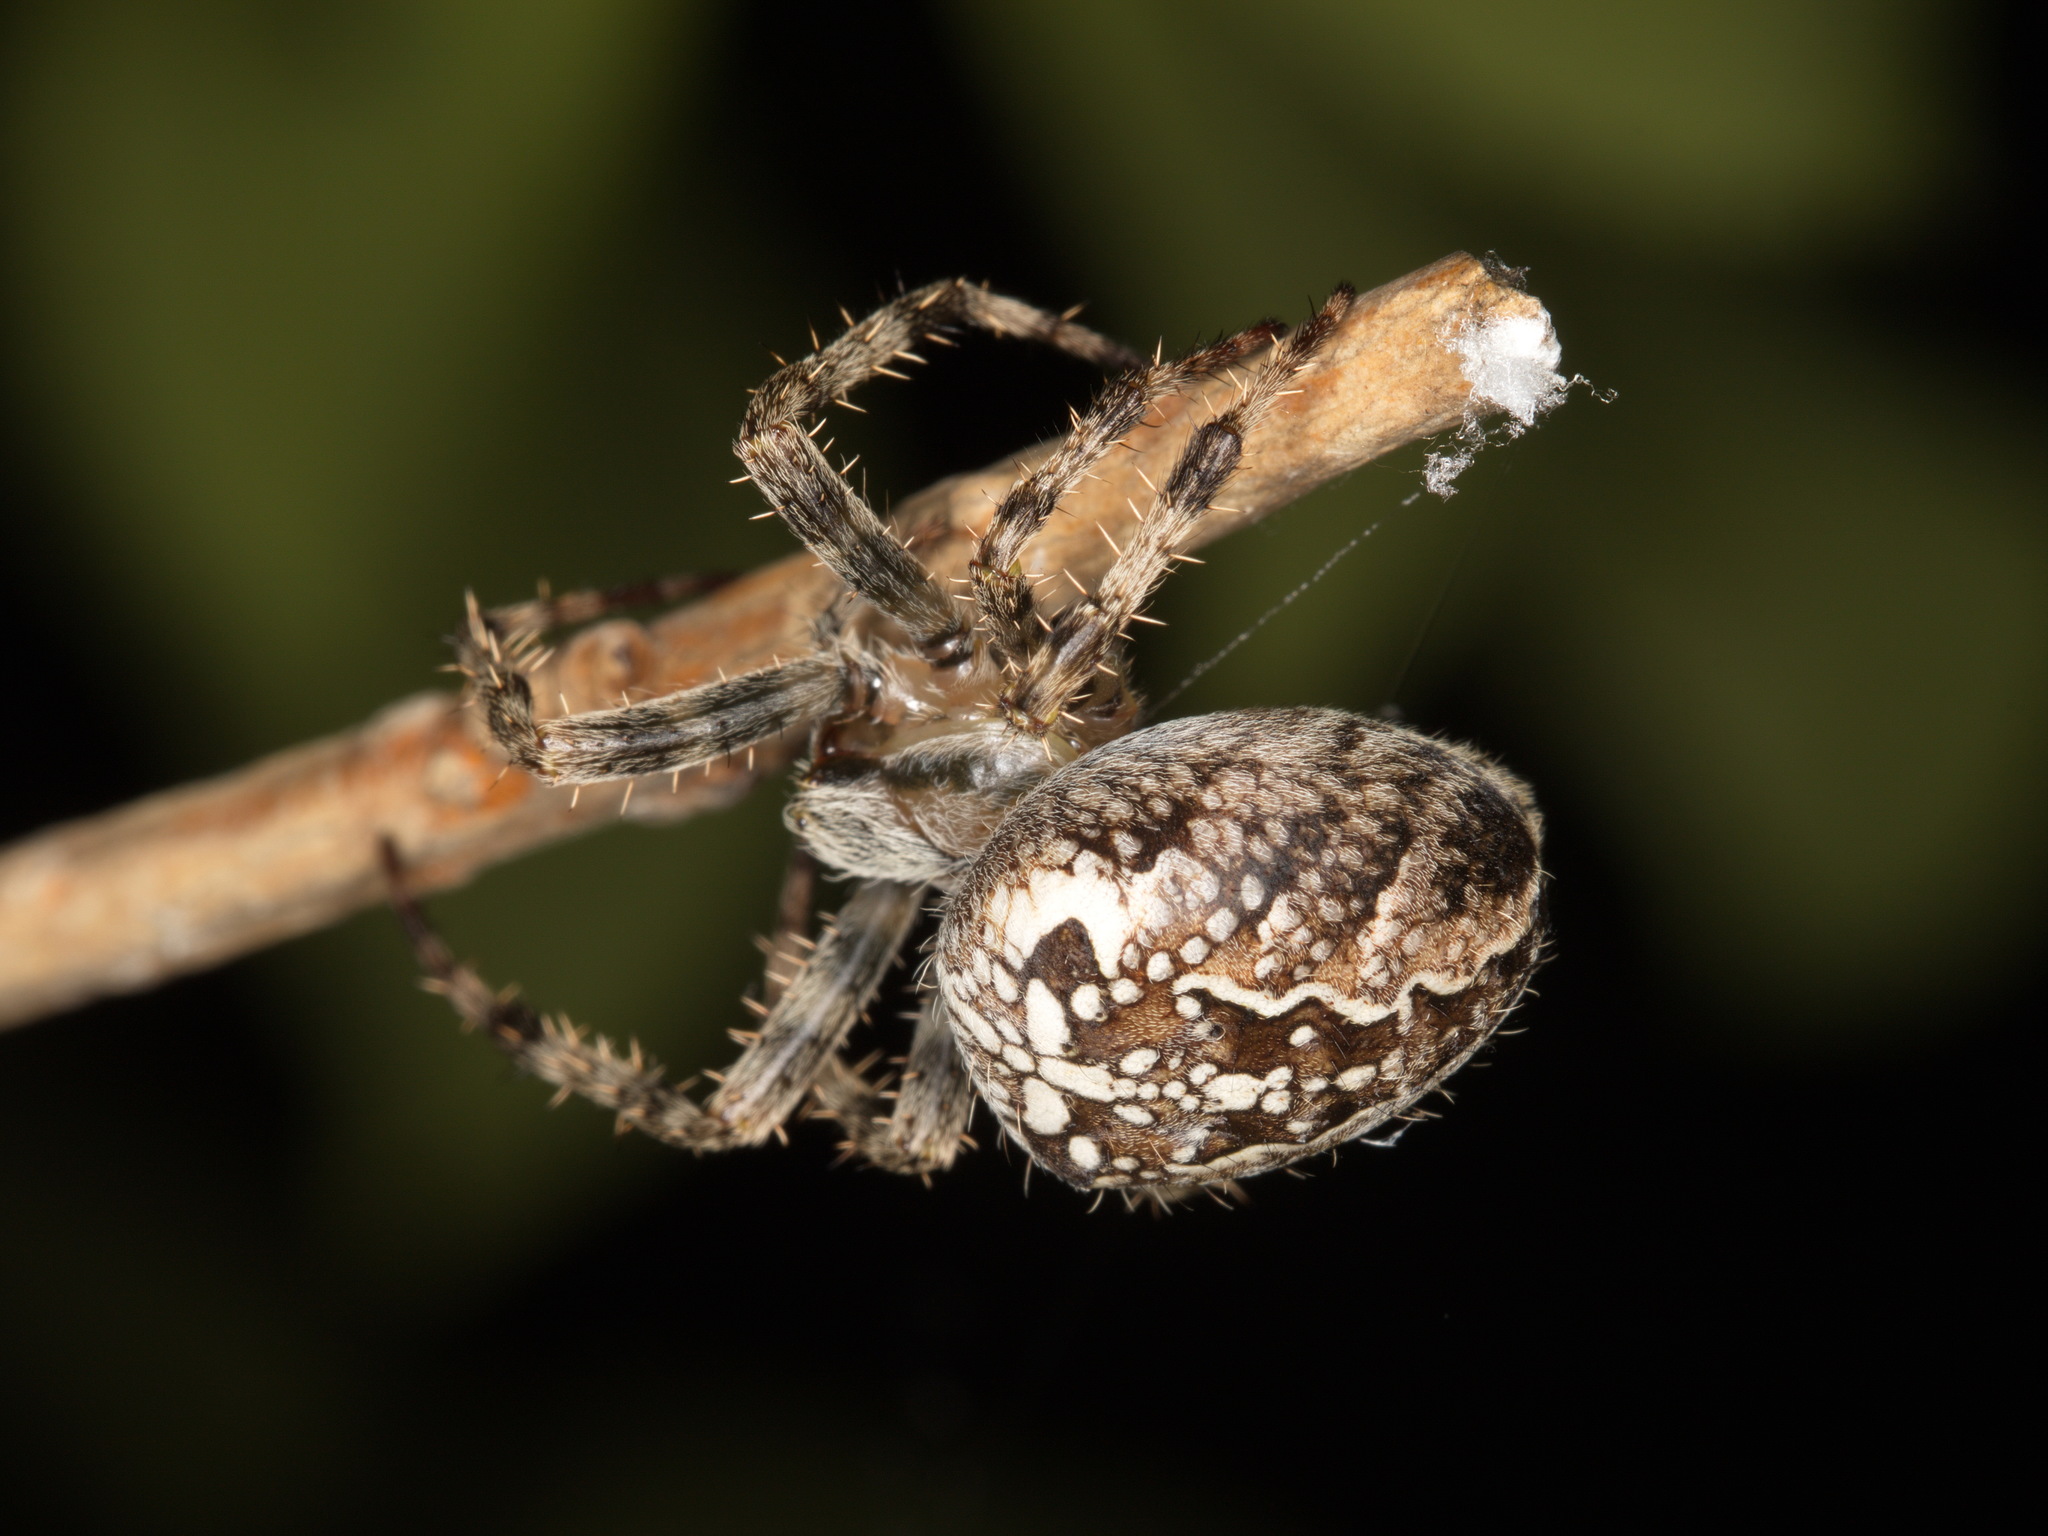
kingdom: Animalia
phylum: Arthropoda
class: Arachnida
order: Araneae
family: Araneidae
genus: Araneus
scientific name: Araneus diadematus
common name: Cross orbweaver
